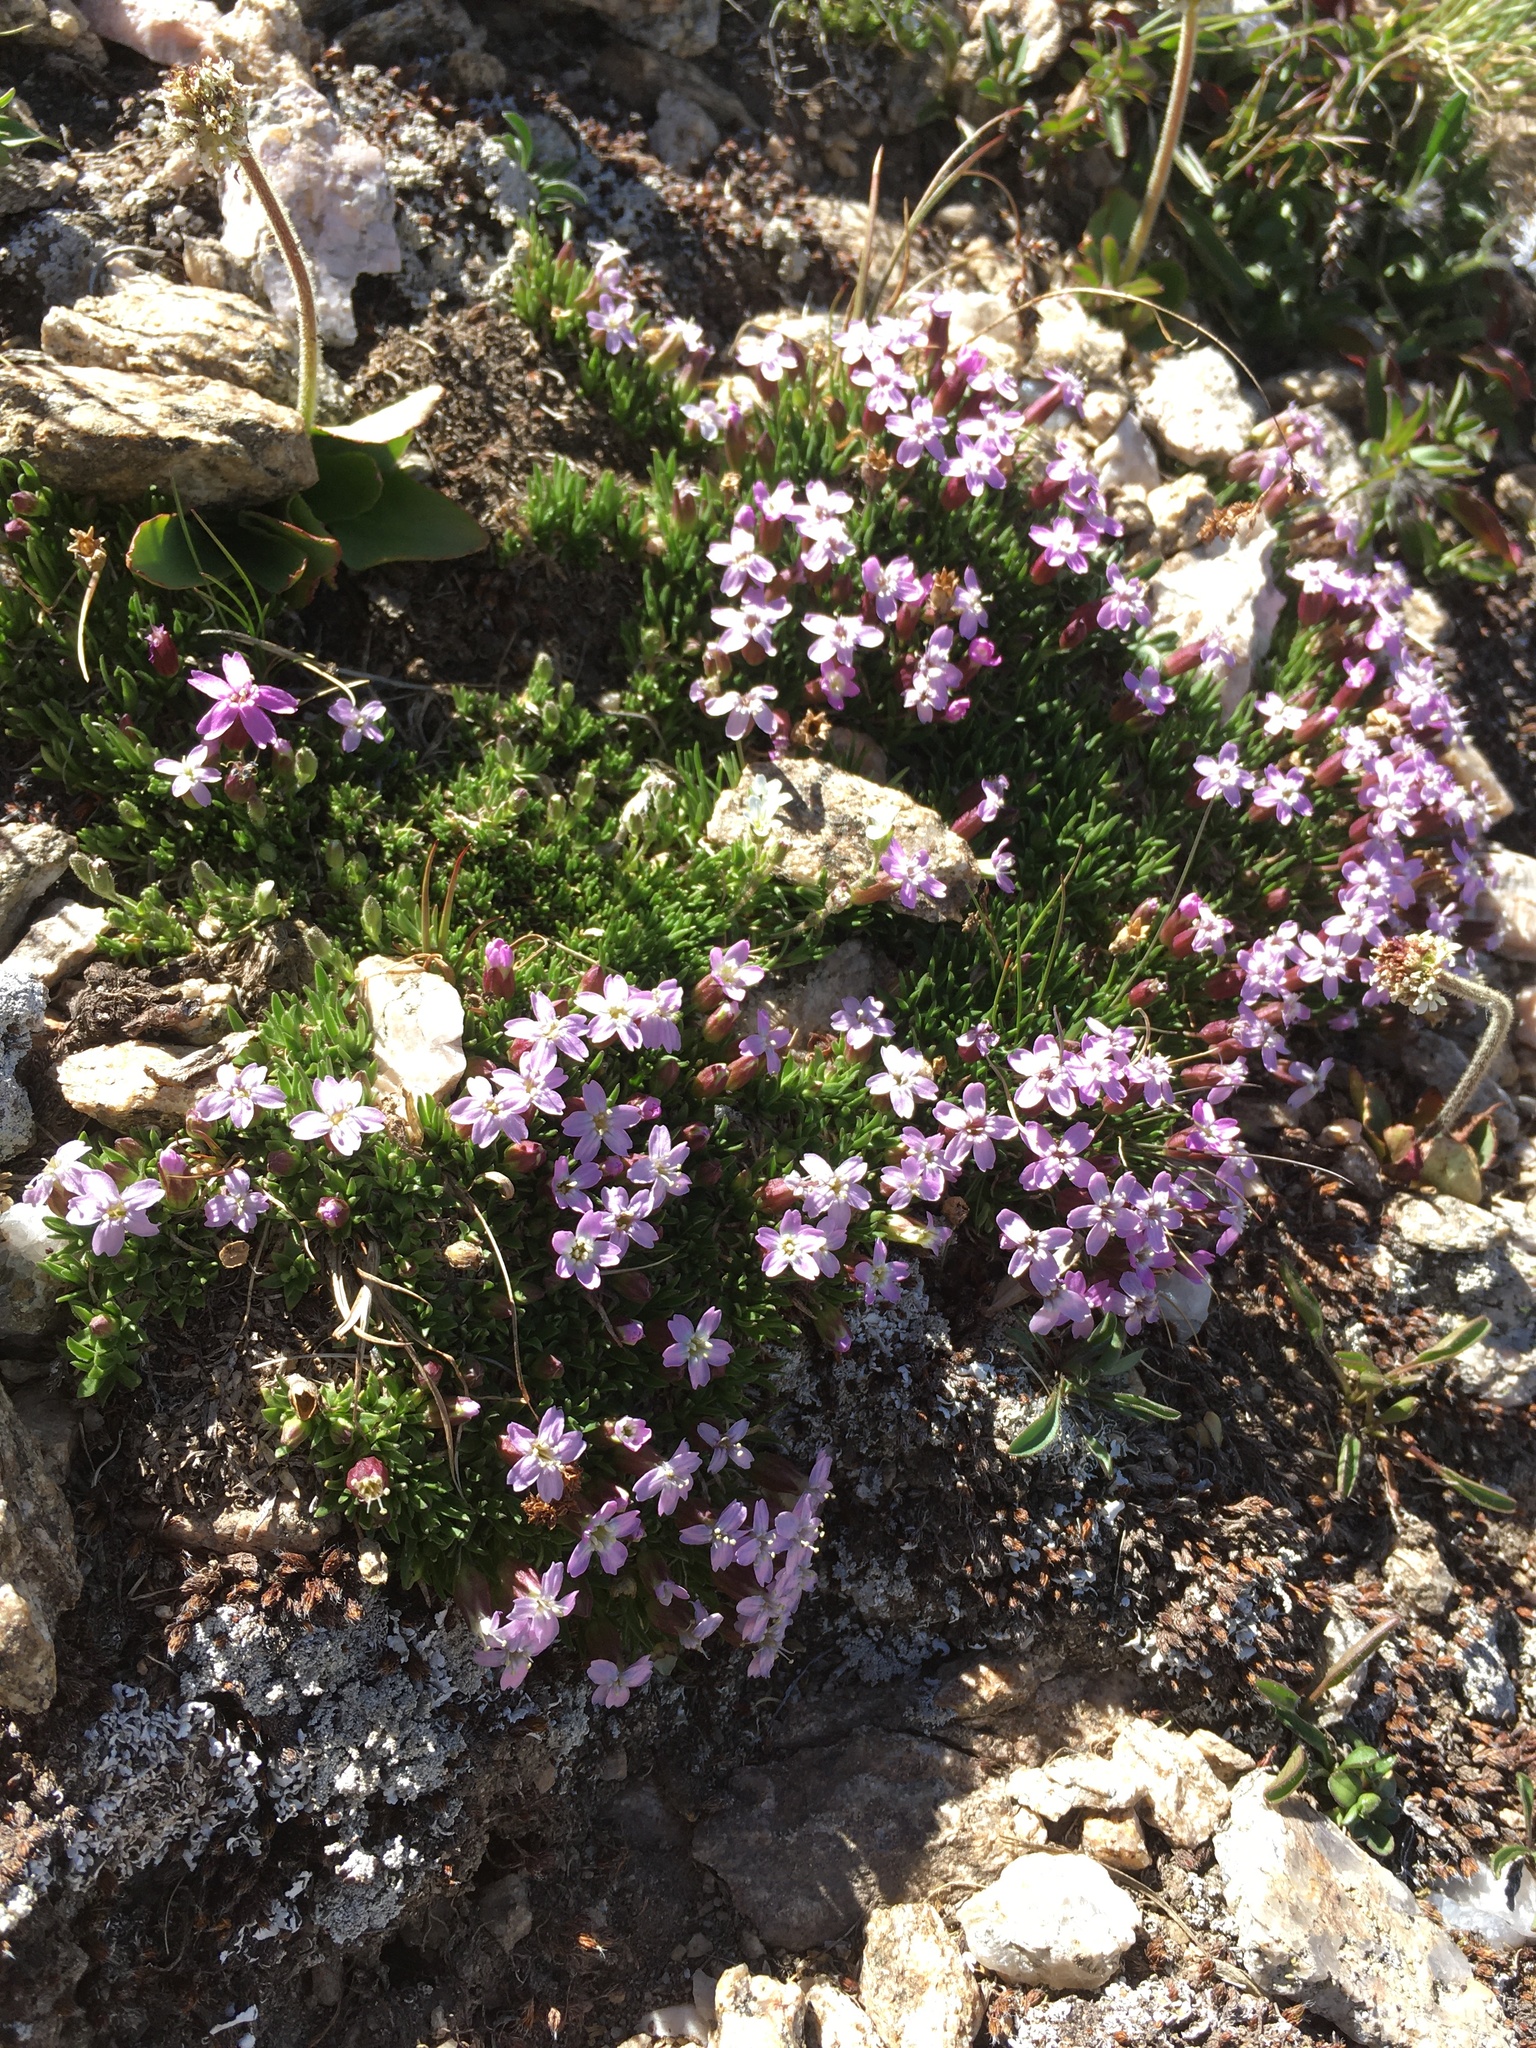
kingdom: Plantae
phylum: Tracheophyta
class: Magnoliopsida
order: Caryophyllales
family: Caryophyllaceae
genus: Silene
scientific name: Silene acaulis
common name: Moss campion
